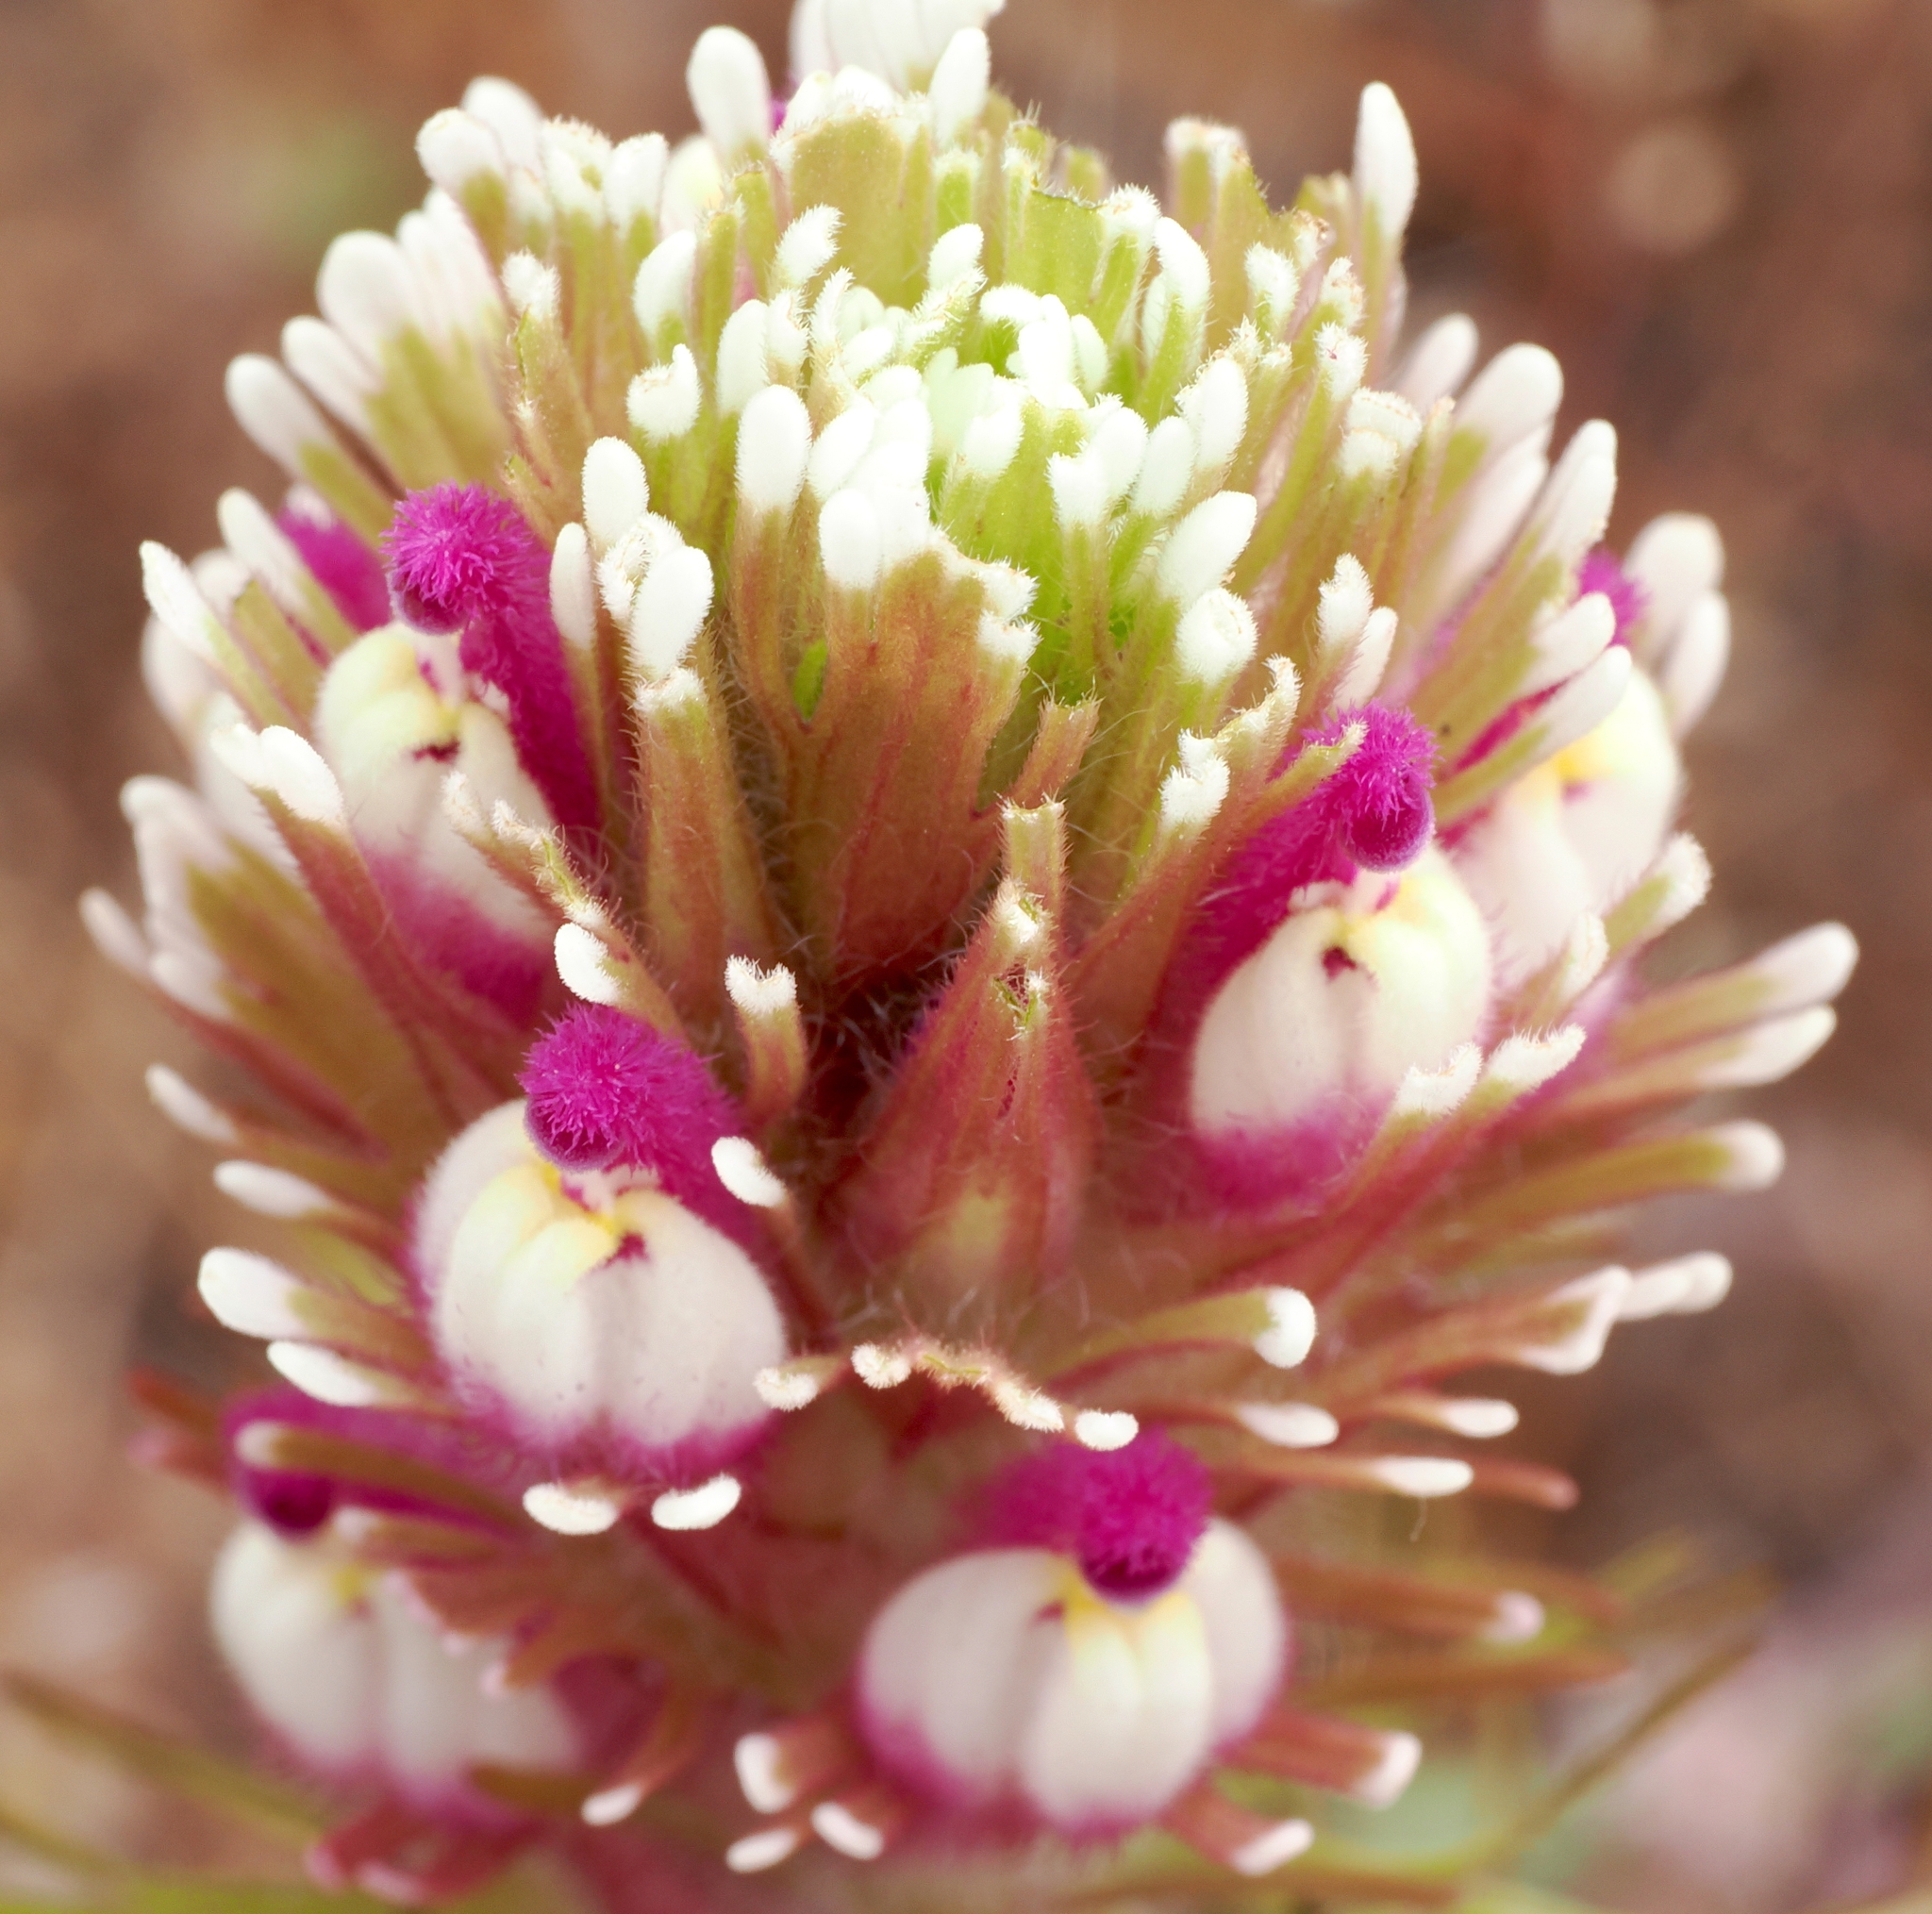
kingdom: Plantae
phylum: Tracheophyta
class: Magnoliopsida
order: Lamiales
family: Orobanchaceae
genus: Castilleja
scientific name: Castilleja exserta
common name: Purple owl-clover
